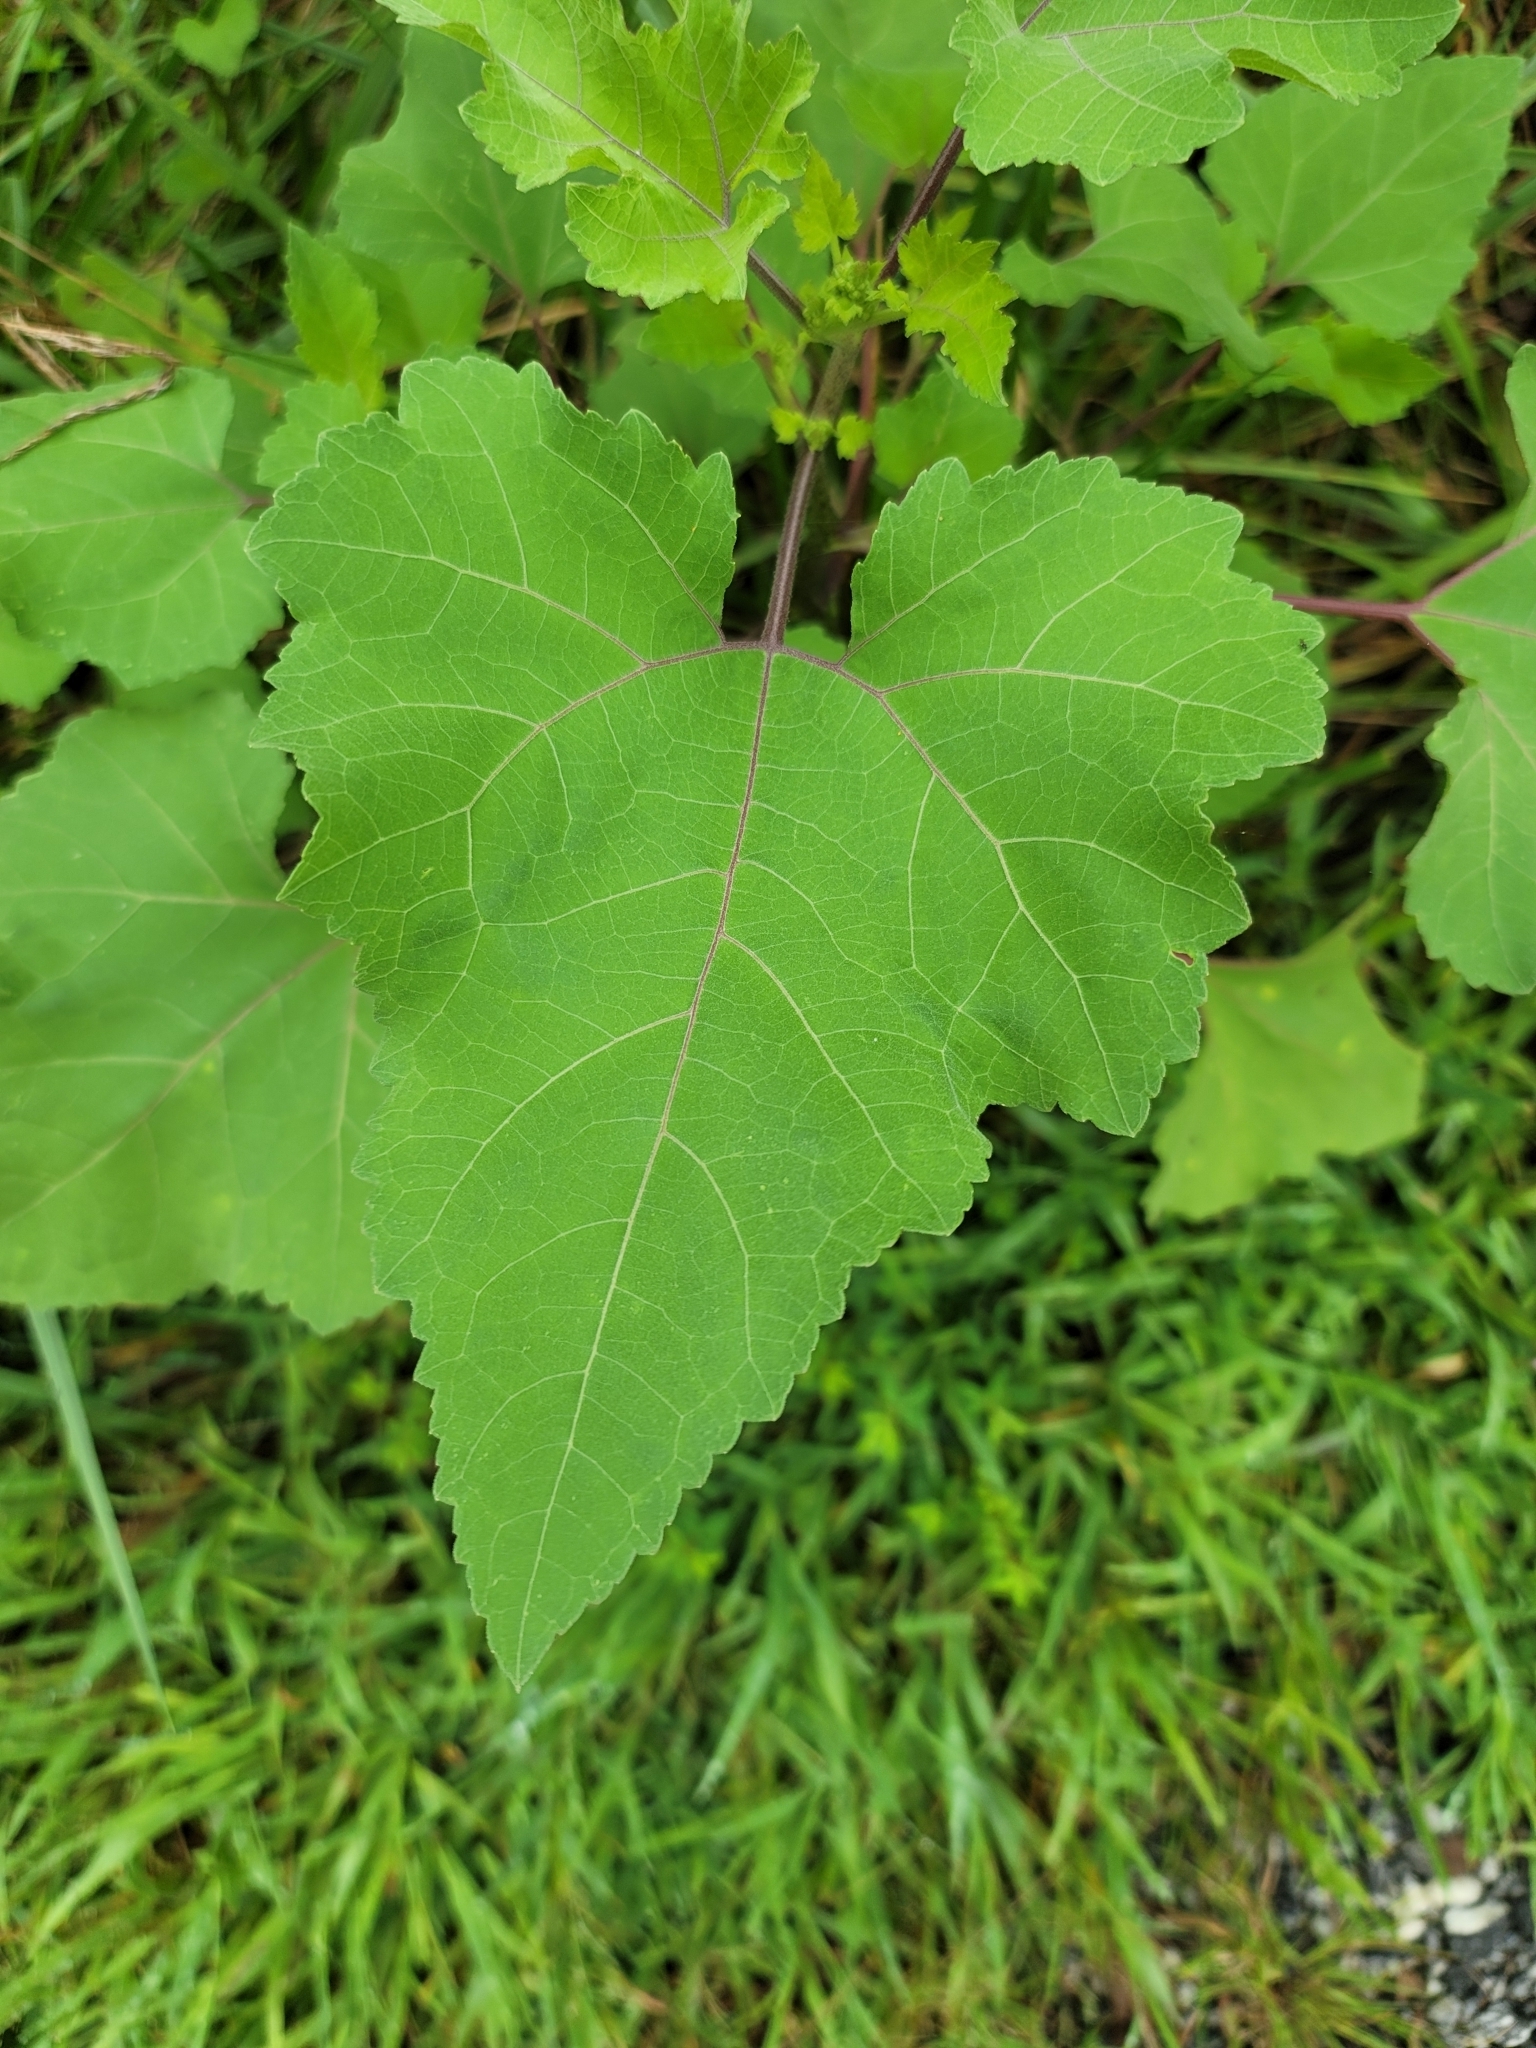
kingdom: Plantae
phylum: Tracheophyta
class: Magnoliopsida
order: Asterales
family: Asteraceae
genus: Xanthium
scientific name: Xanthium strumarium
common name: Rough cocklebur
